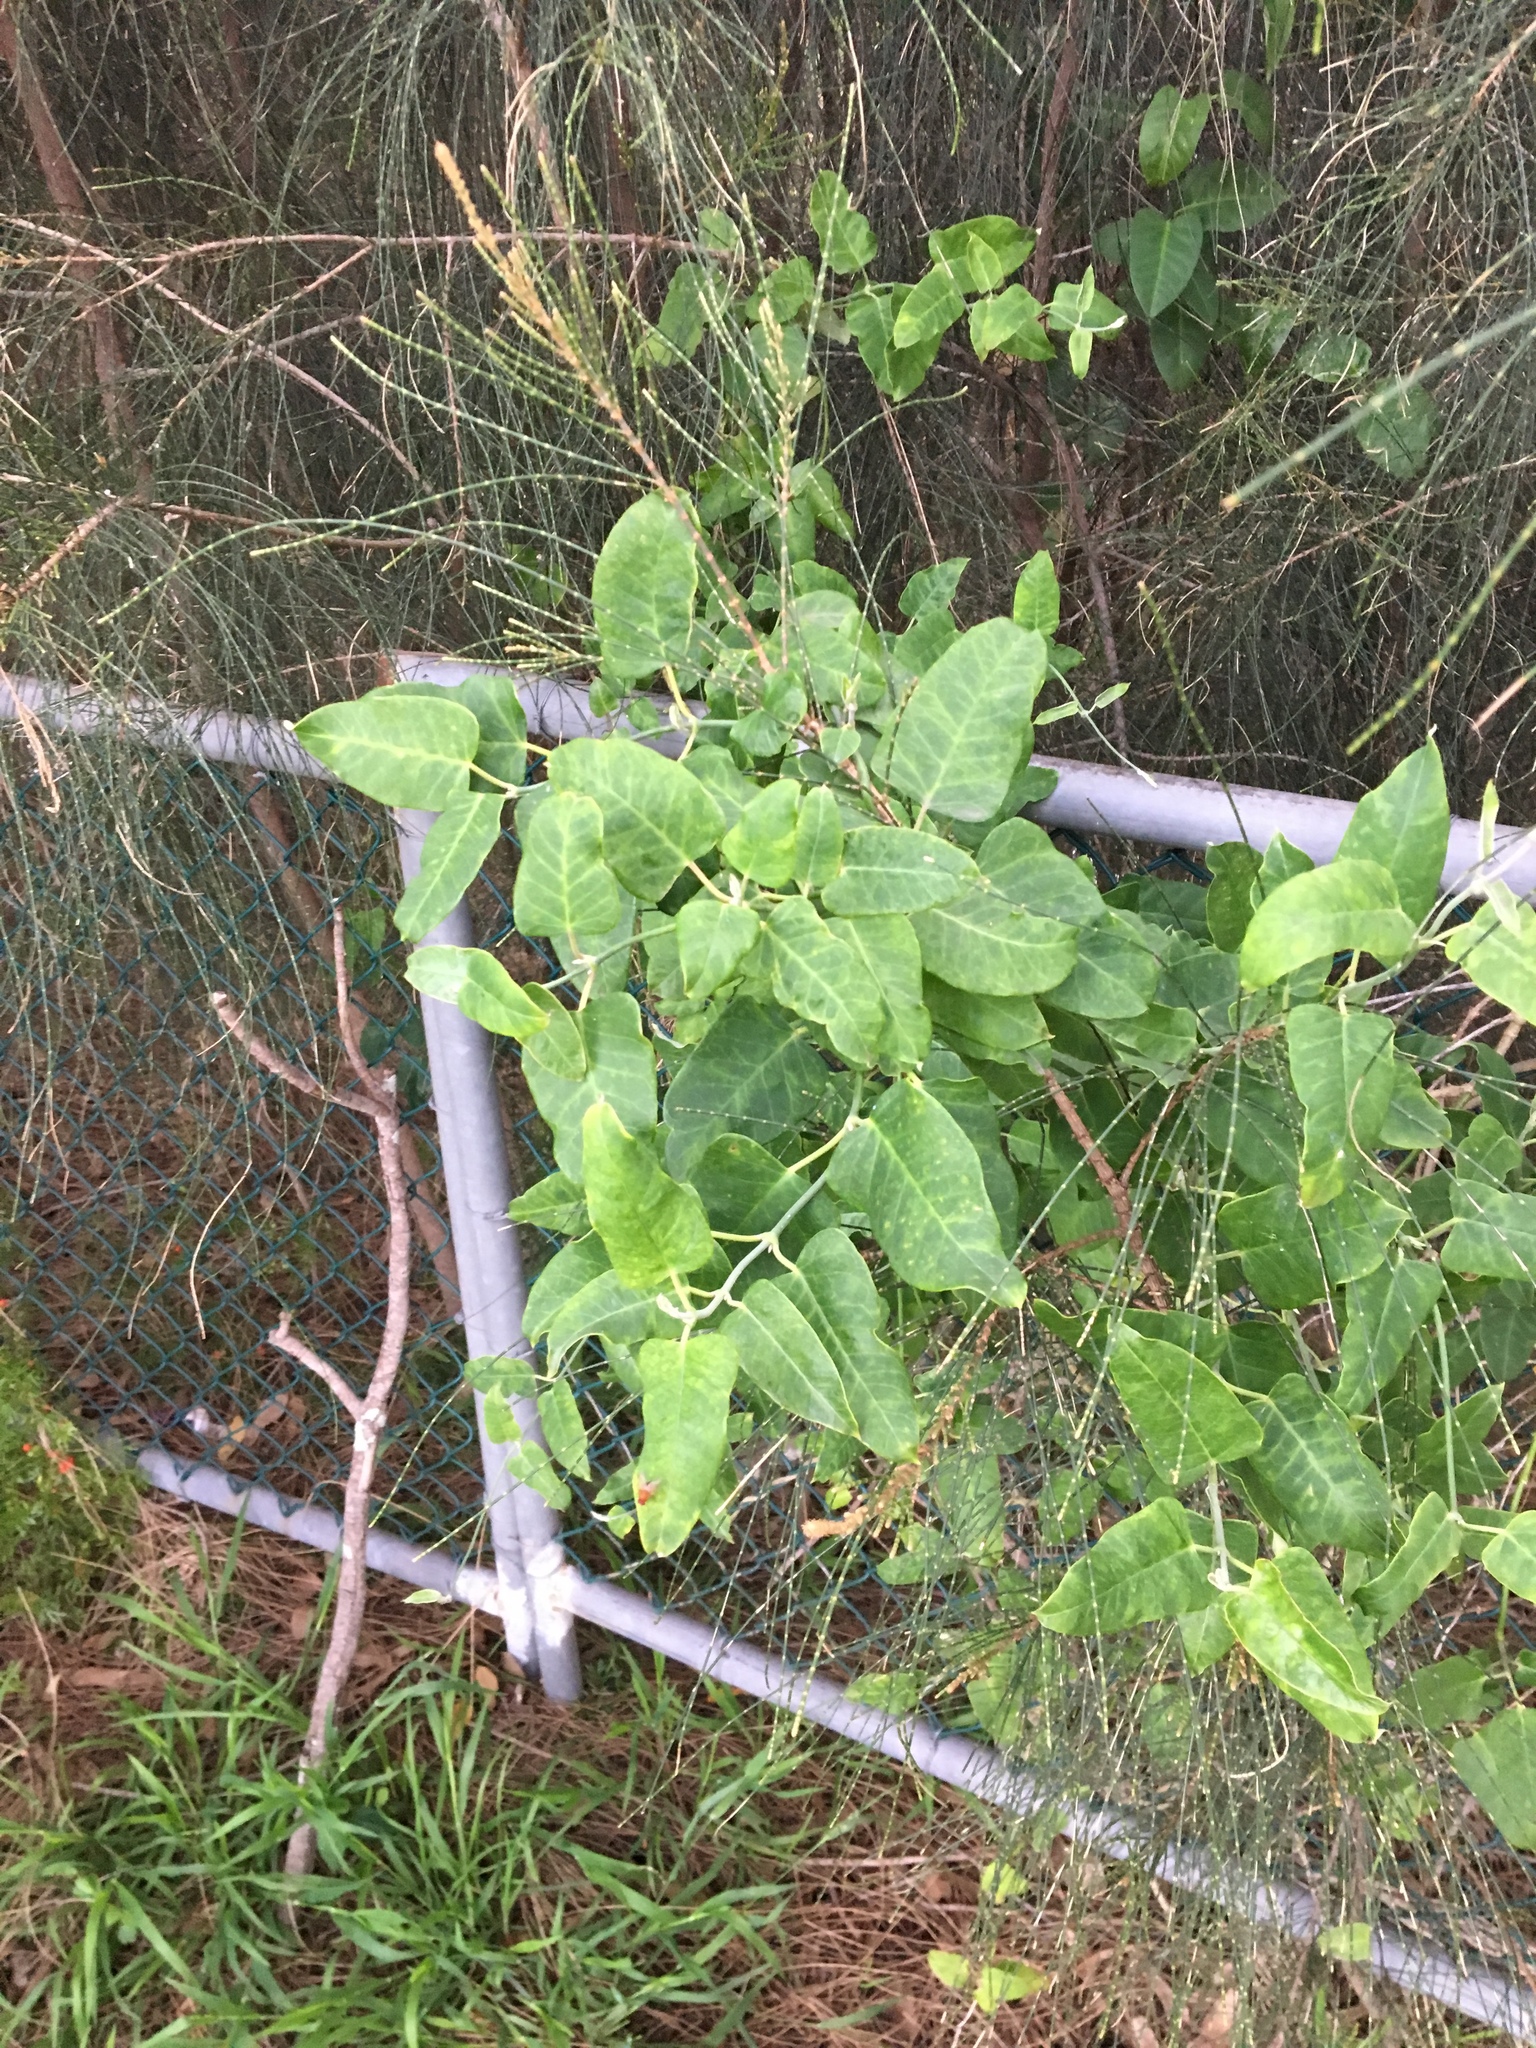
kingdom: Plantae
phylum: Tracheophyta
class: Magnoliopsida
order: Gentianales
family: Apocynaceae
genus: Araujia
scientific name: Araujia sericifera
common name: White bladderflower
